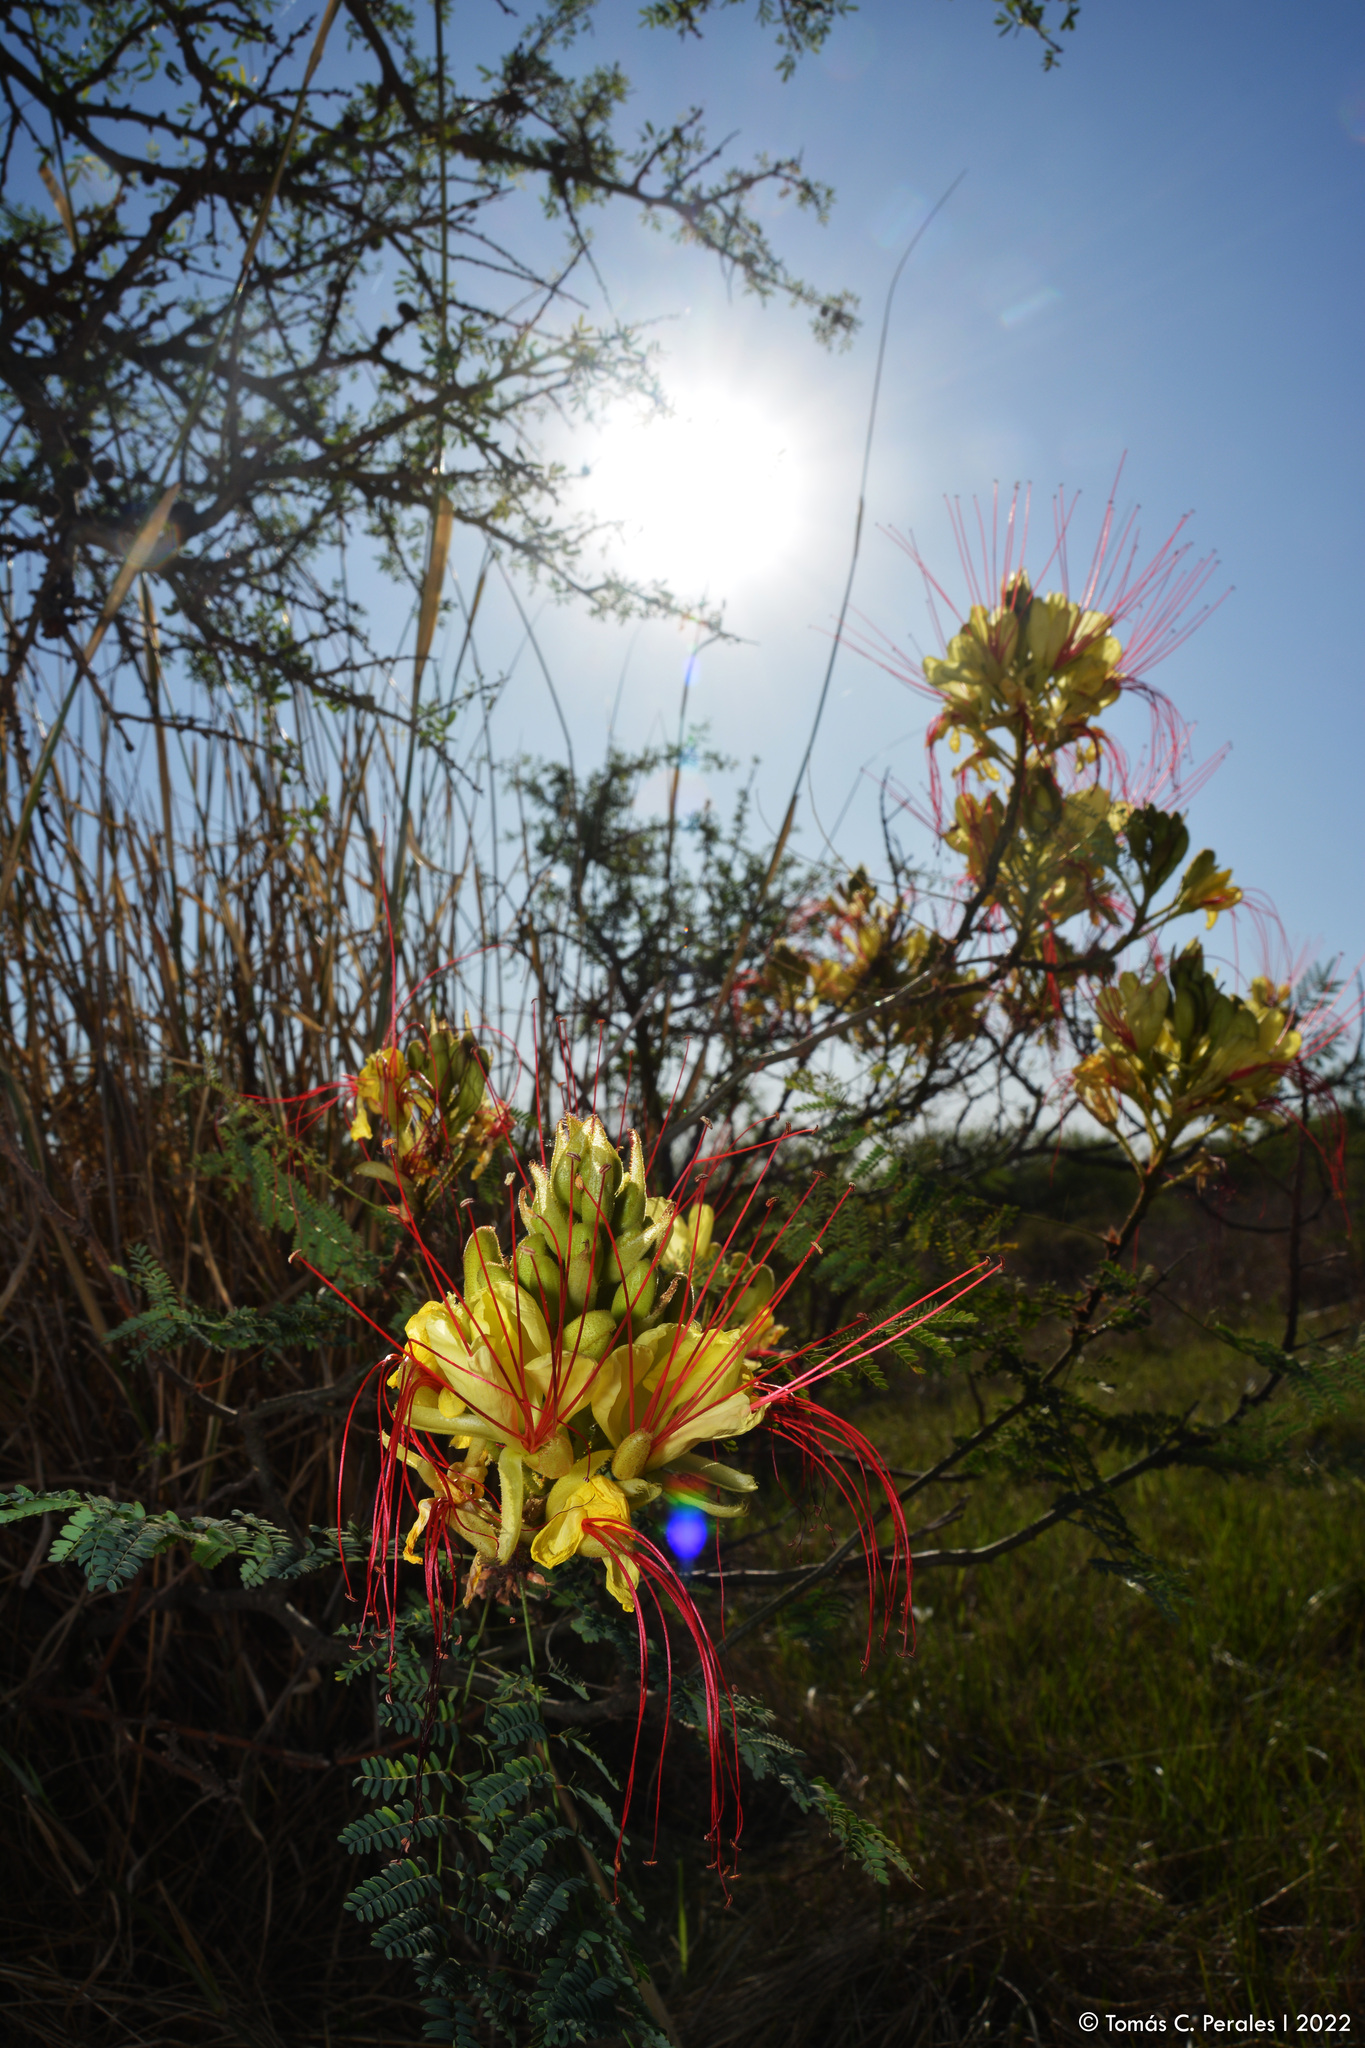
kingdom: Plantae
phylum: Tracheophyta
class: Magnoliopsida
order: Fabales
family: Fabaceae
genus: Erythrostemon
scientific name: Erythrostemon gilliesii
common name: Bird-of-paradise shrub
